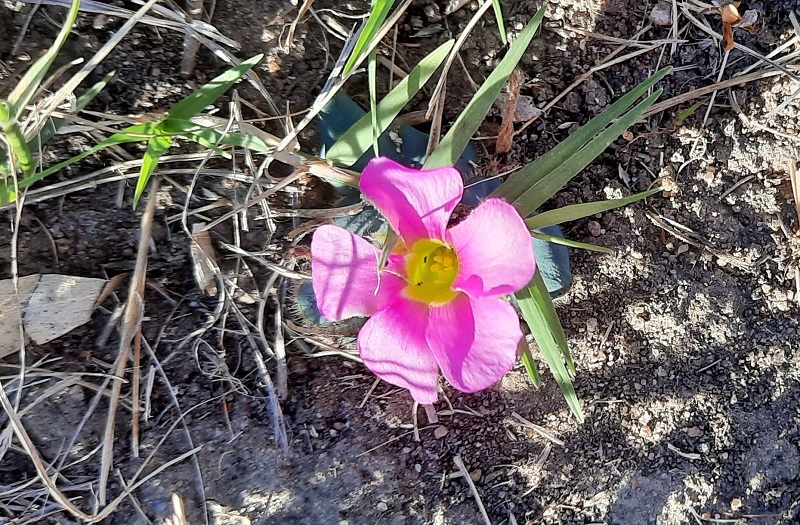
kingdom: Plantae
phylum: Tracheophyta
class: Magnoliopsida
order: Oxalidales
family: Oxalidaceae
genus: Oxalis
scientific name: Oxalis purpurea
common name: Purple woodsorrel
